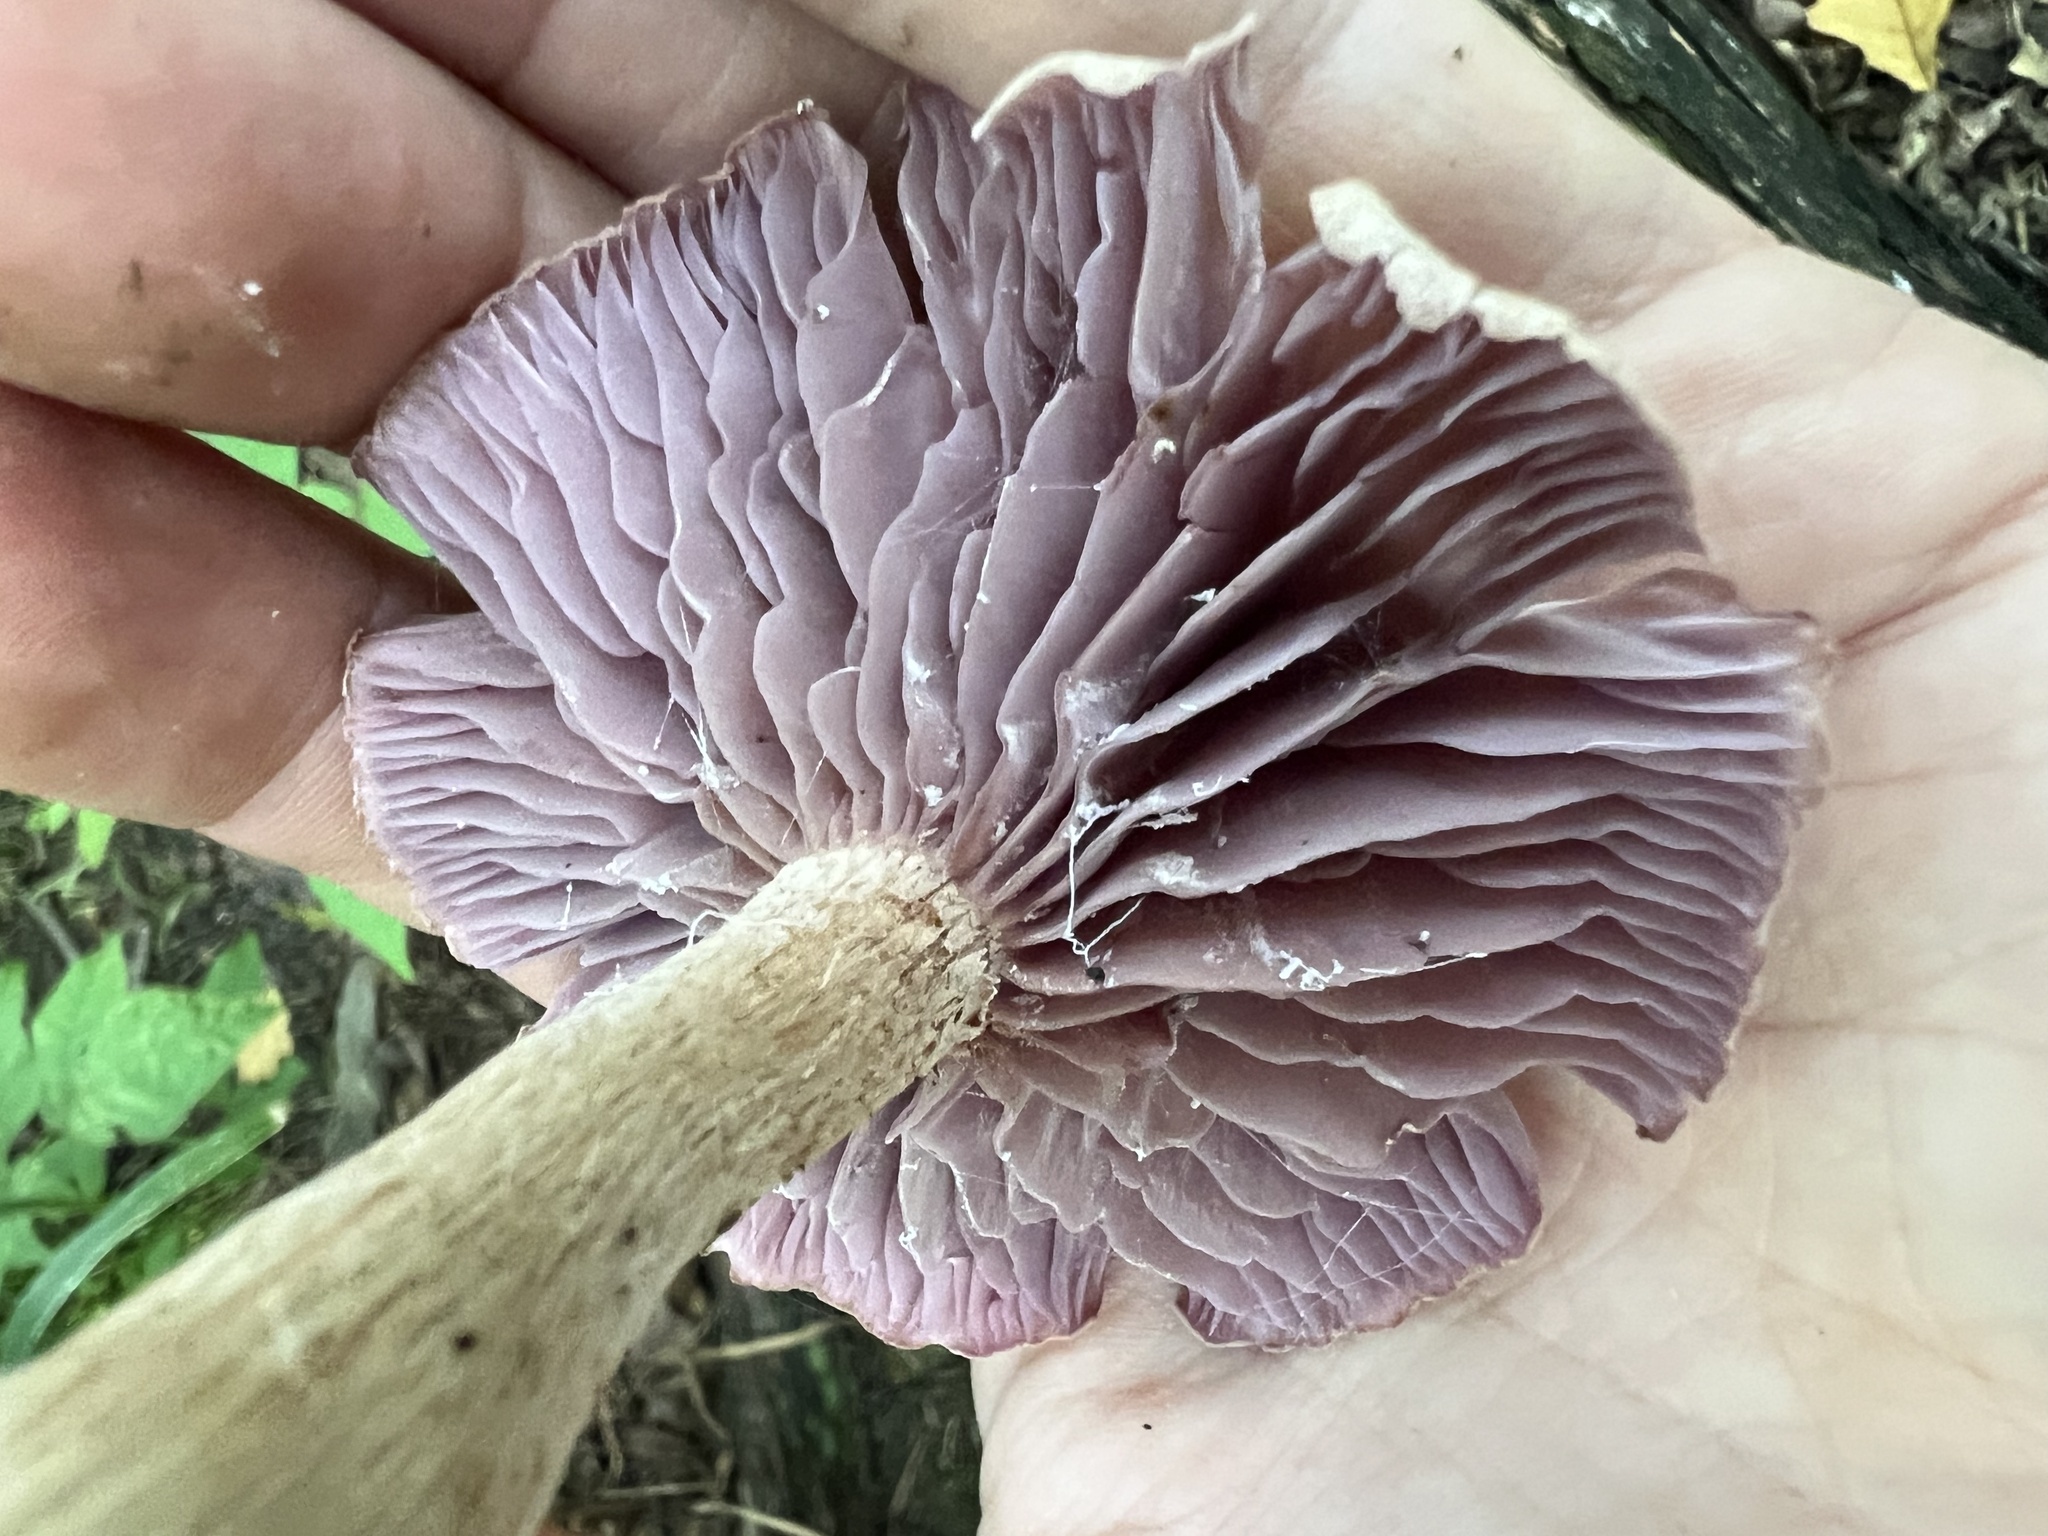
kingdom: Fungi
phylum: Basidiomycota
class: Agaricomycetes
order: Agaricales
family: Hydnangiaceae
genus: Laccaria
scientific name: Laccaria ochropurpurea
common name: Purple laccaria
